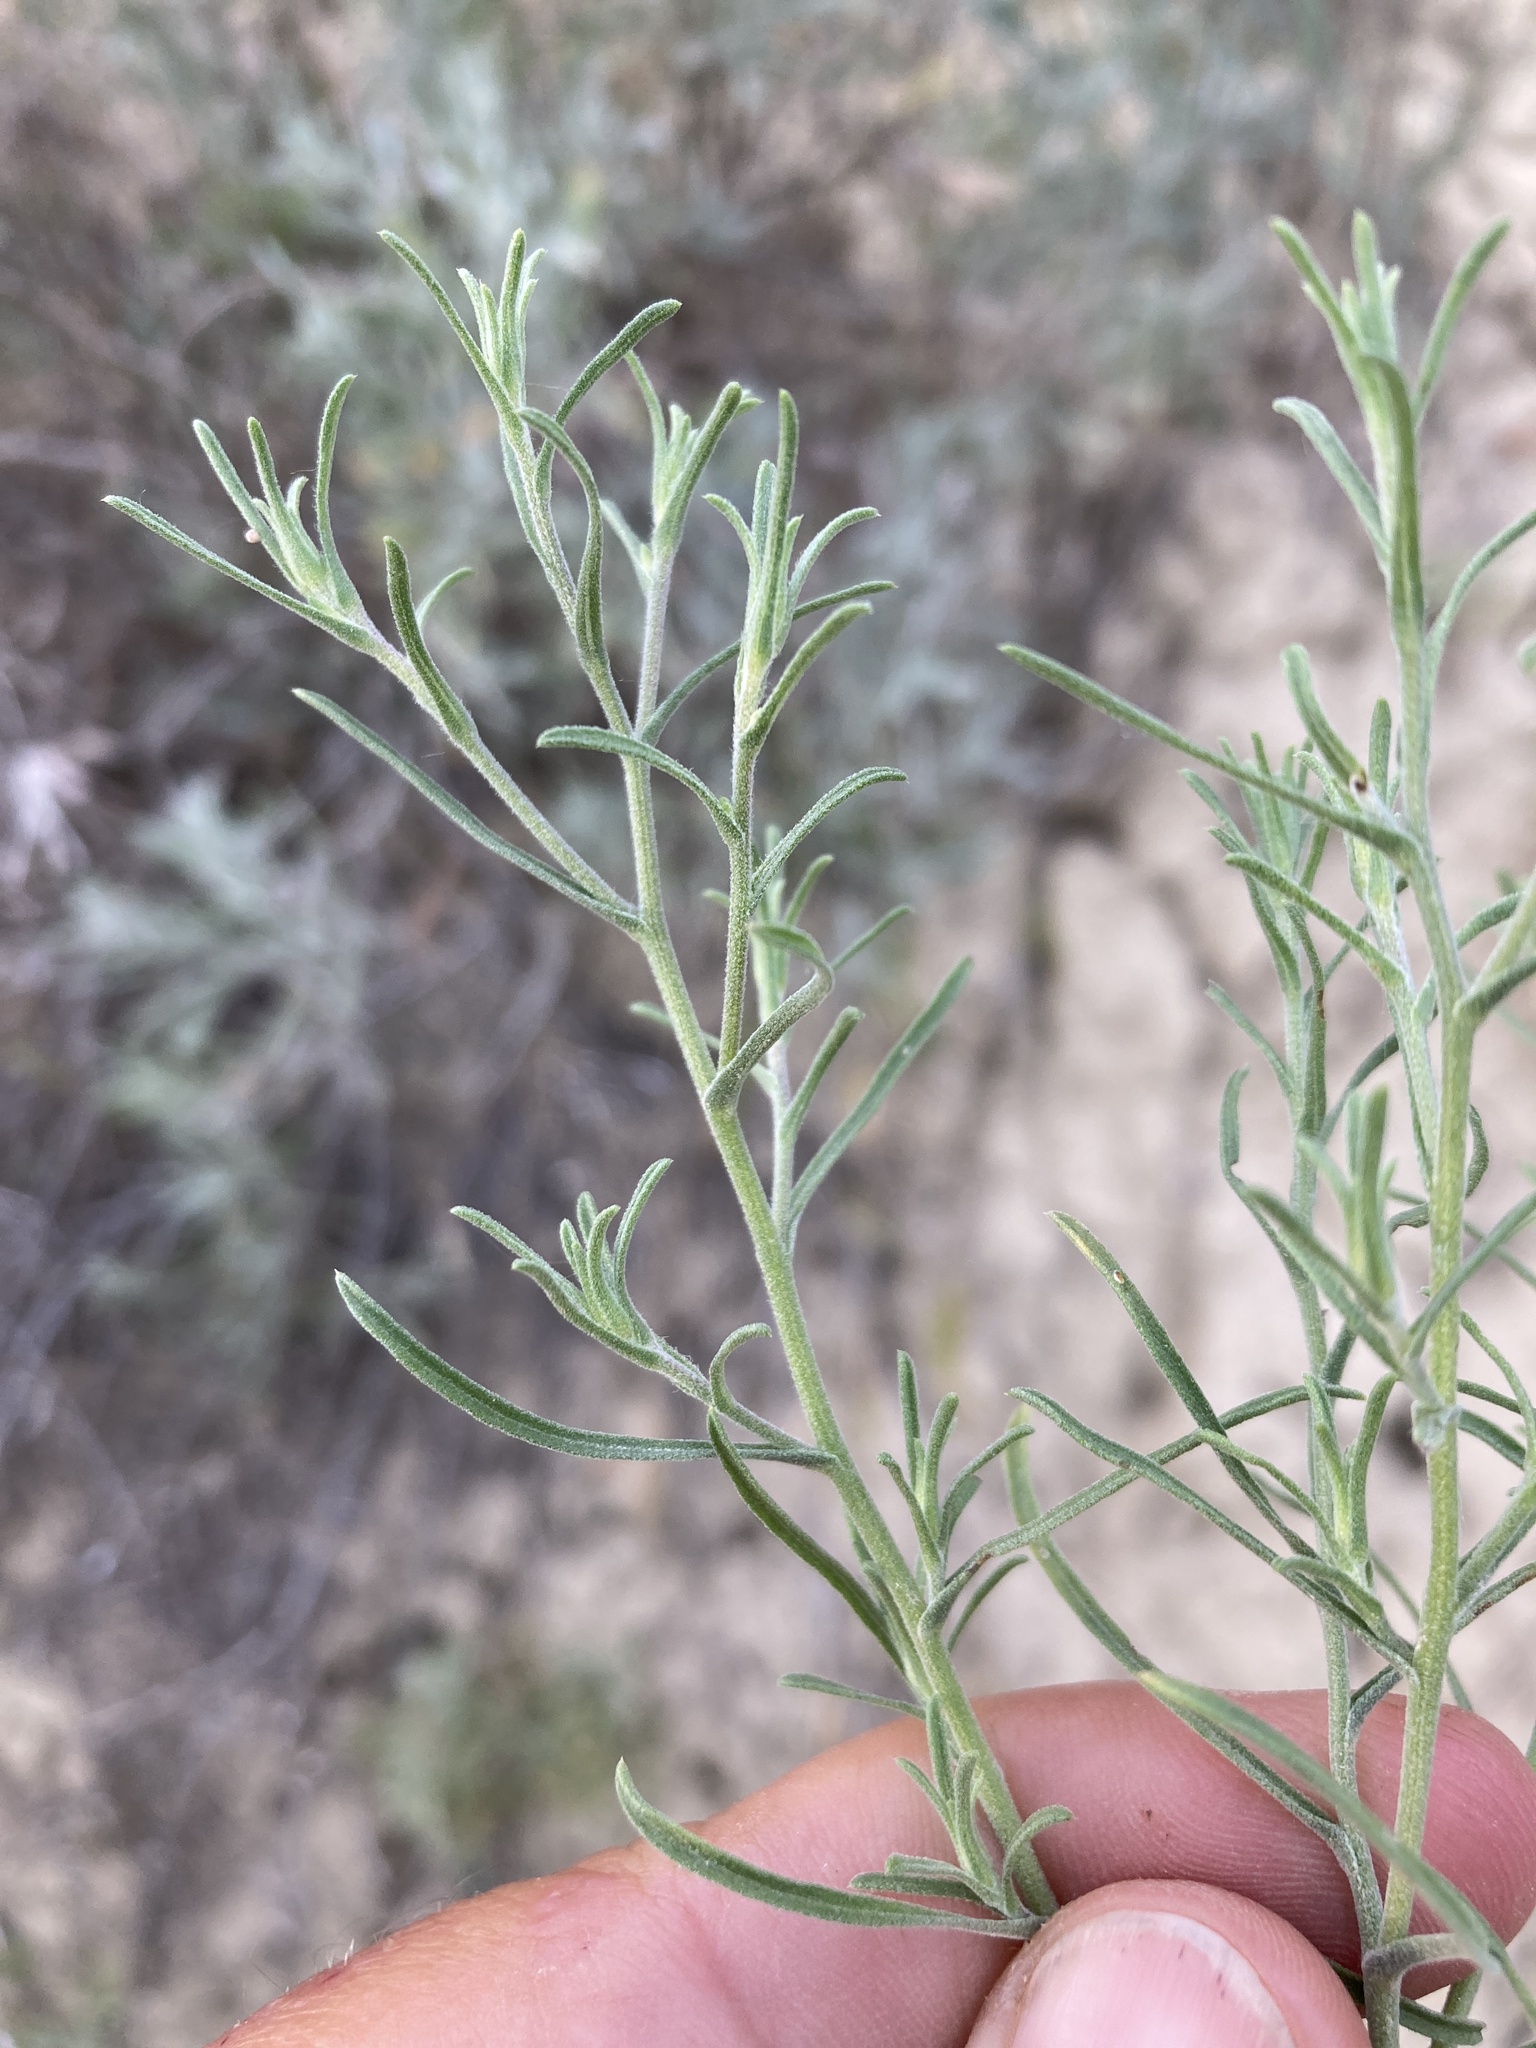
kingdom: Plantae
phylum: Tracheophyta
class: Magnoliopsida
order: Asterales
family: Asteraceae
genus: Dieteria
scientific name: Dieteria canescens
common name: Hoary-aster
